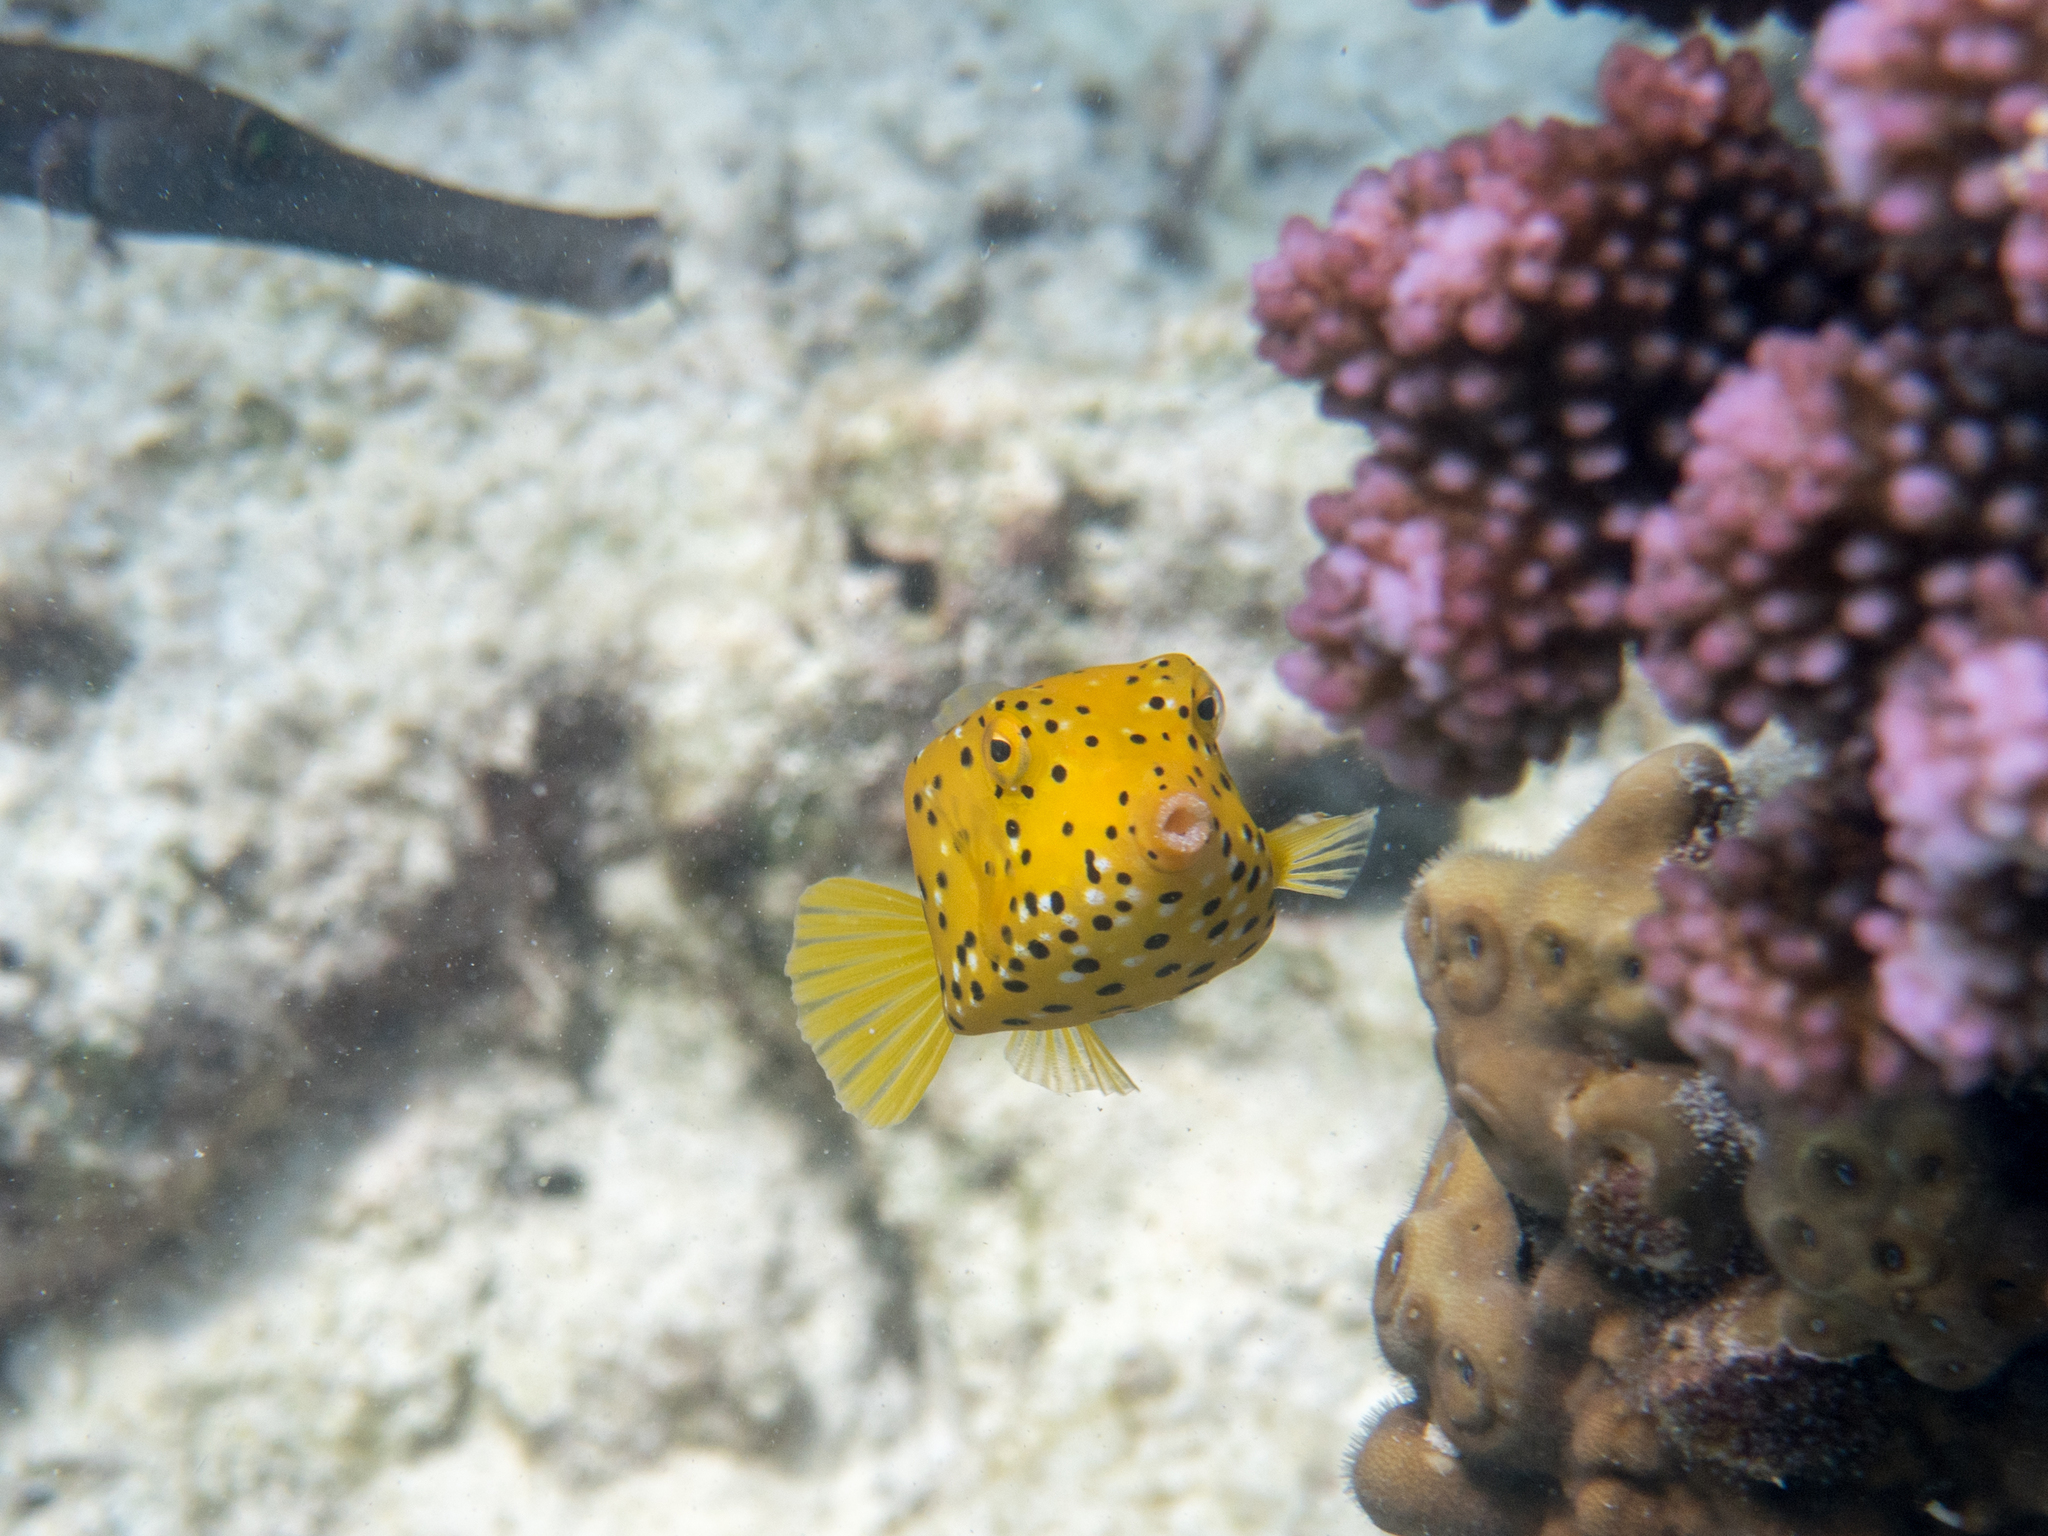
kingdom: Animalia
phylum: Chordata
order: Tetraodontiformes
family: Ostraciidae
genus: Ostracion
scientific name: Ostracion cubicus
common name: Cube trunkfish
